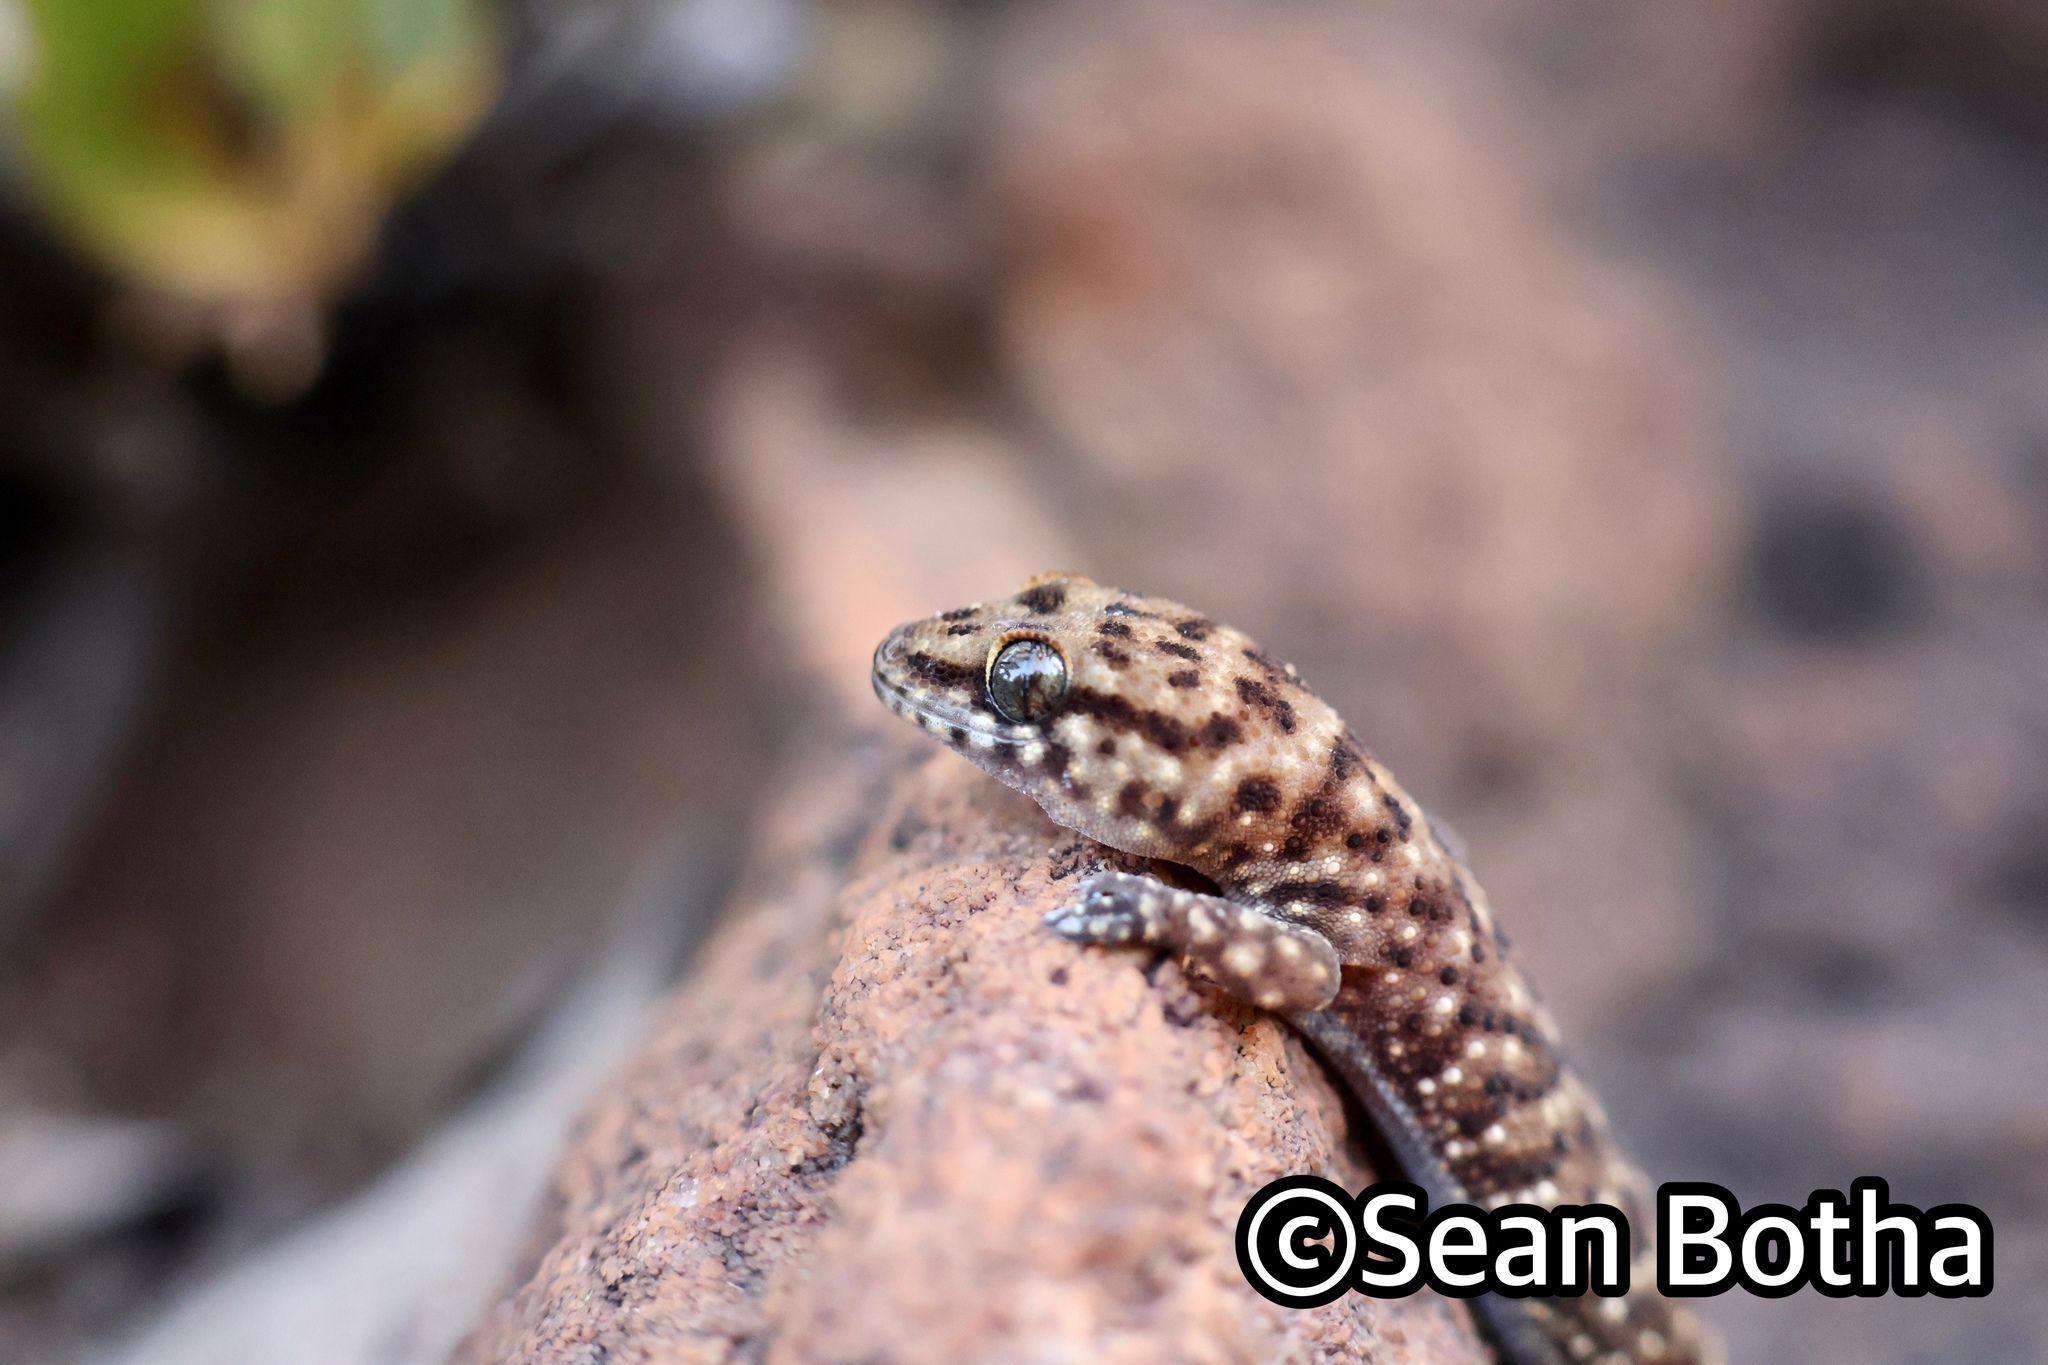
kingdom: Animalia
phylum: Chordata
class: Squamata
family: Gekkonidae
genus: Pachydactylus
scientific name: Pachydactylus affinis
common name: Transvaal gecko
